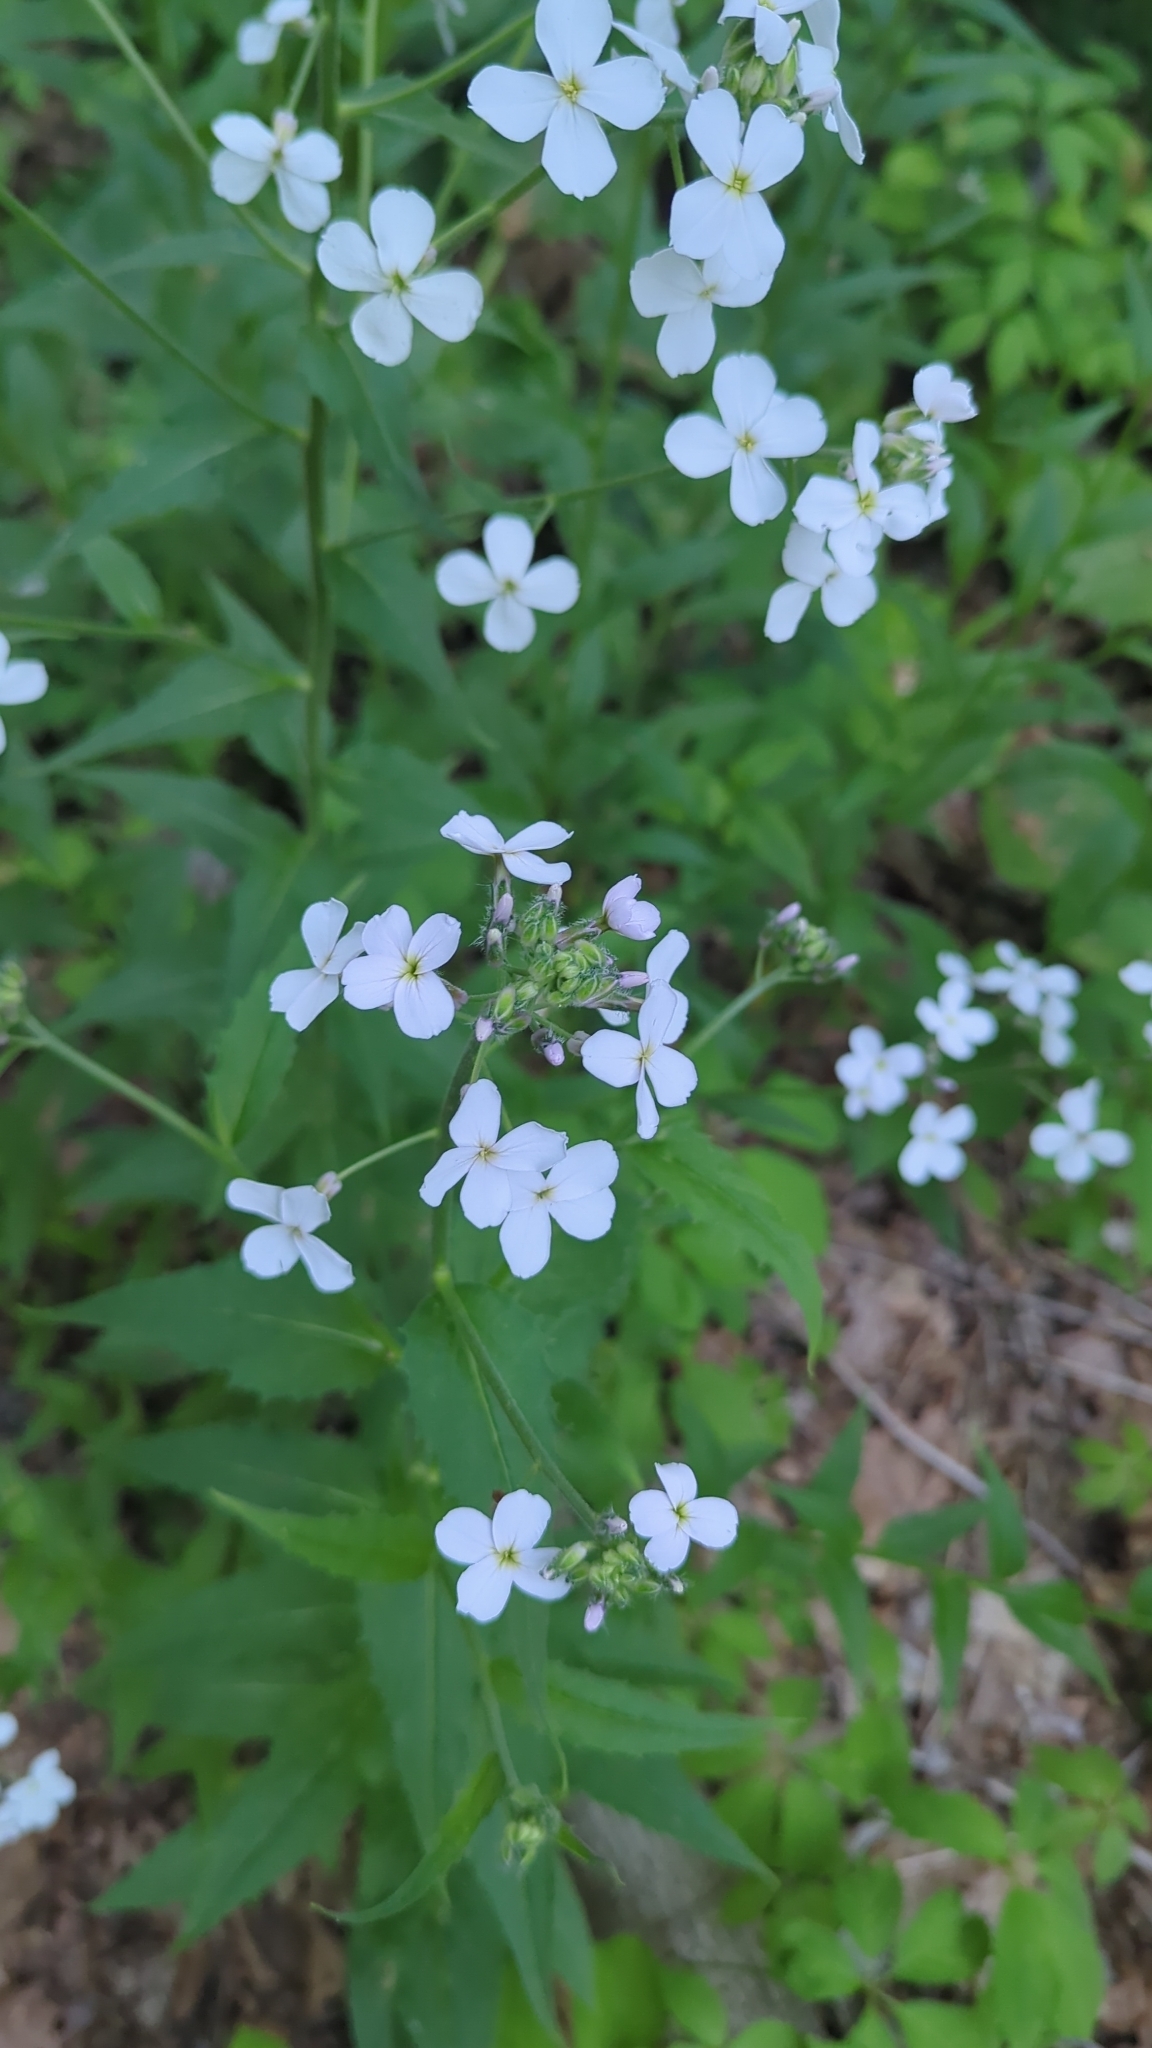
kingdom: Plantae
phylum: Tracheophyta
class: Magnoliopsida
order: Brassicales
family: Brassicaceae
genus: Hesperis
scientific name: Hesperis matronalis
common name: Dame's-violet
